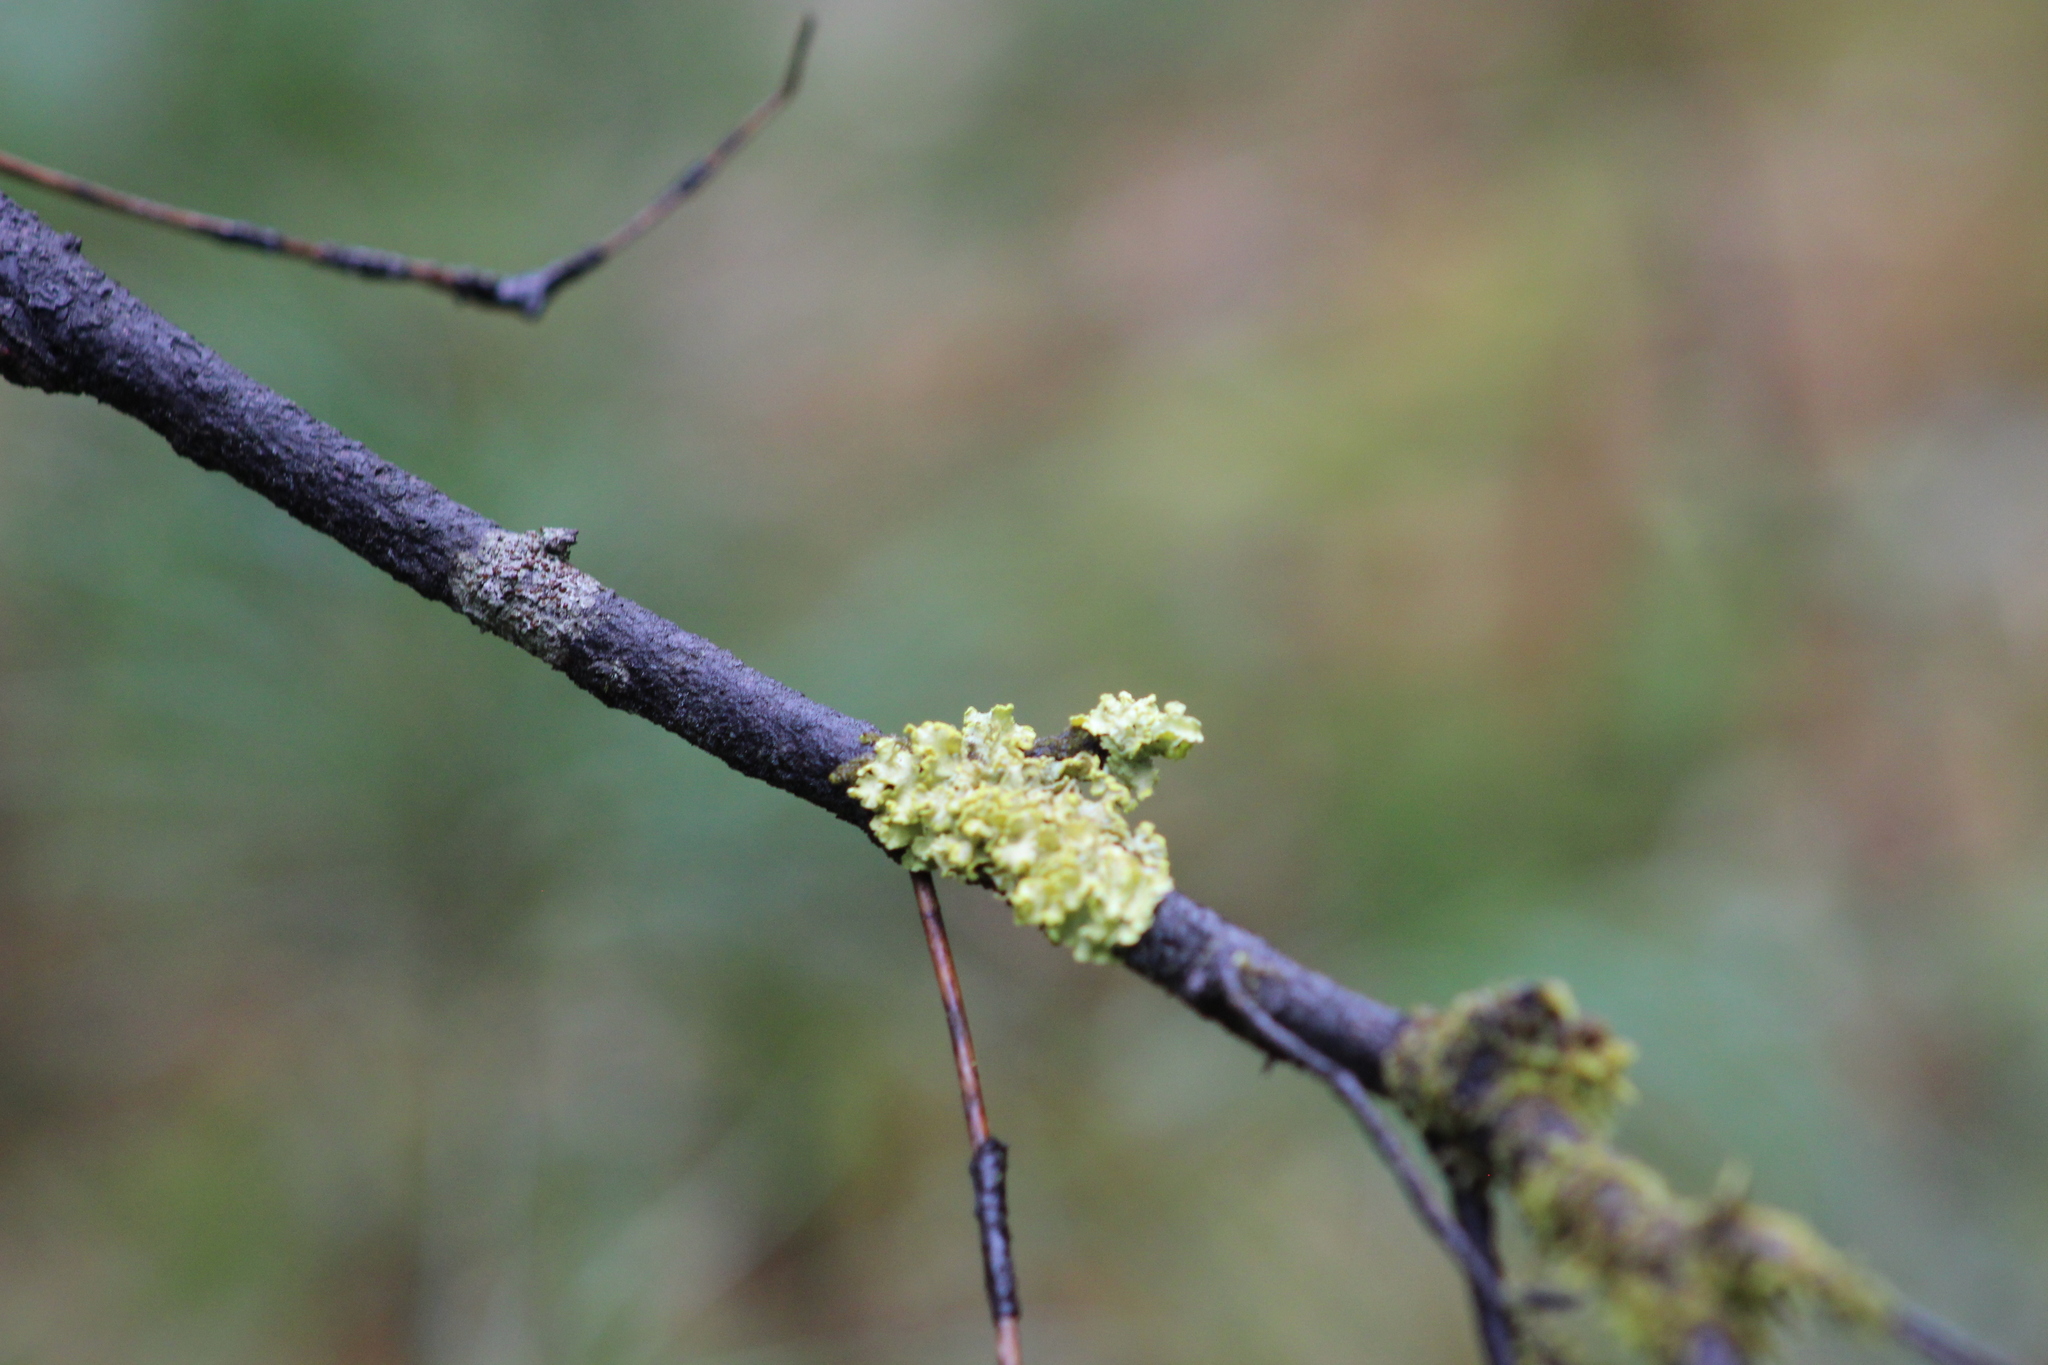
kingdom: Fungi
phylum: Ascomycota
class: Lecanoromycetes
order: Lecanorales
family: Parmeliaceae
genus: Vulpicida
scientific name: Vulpicida pinastri
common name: Powdered sunshine lichen
